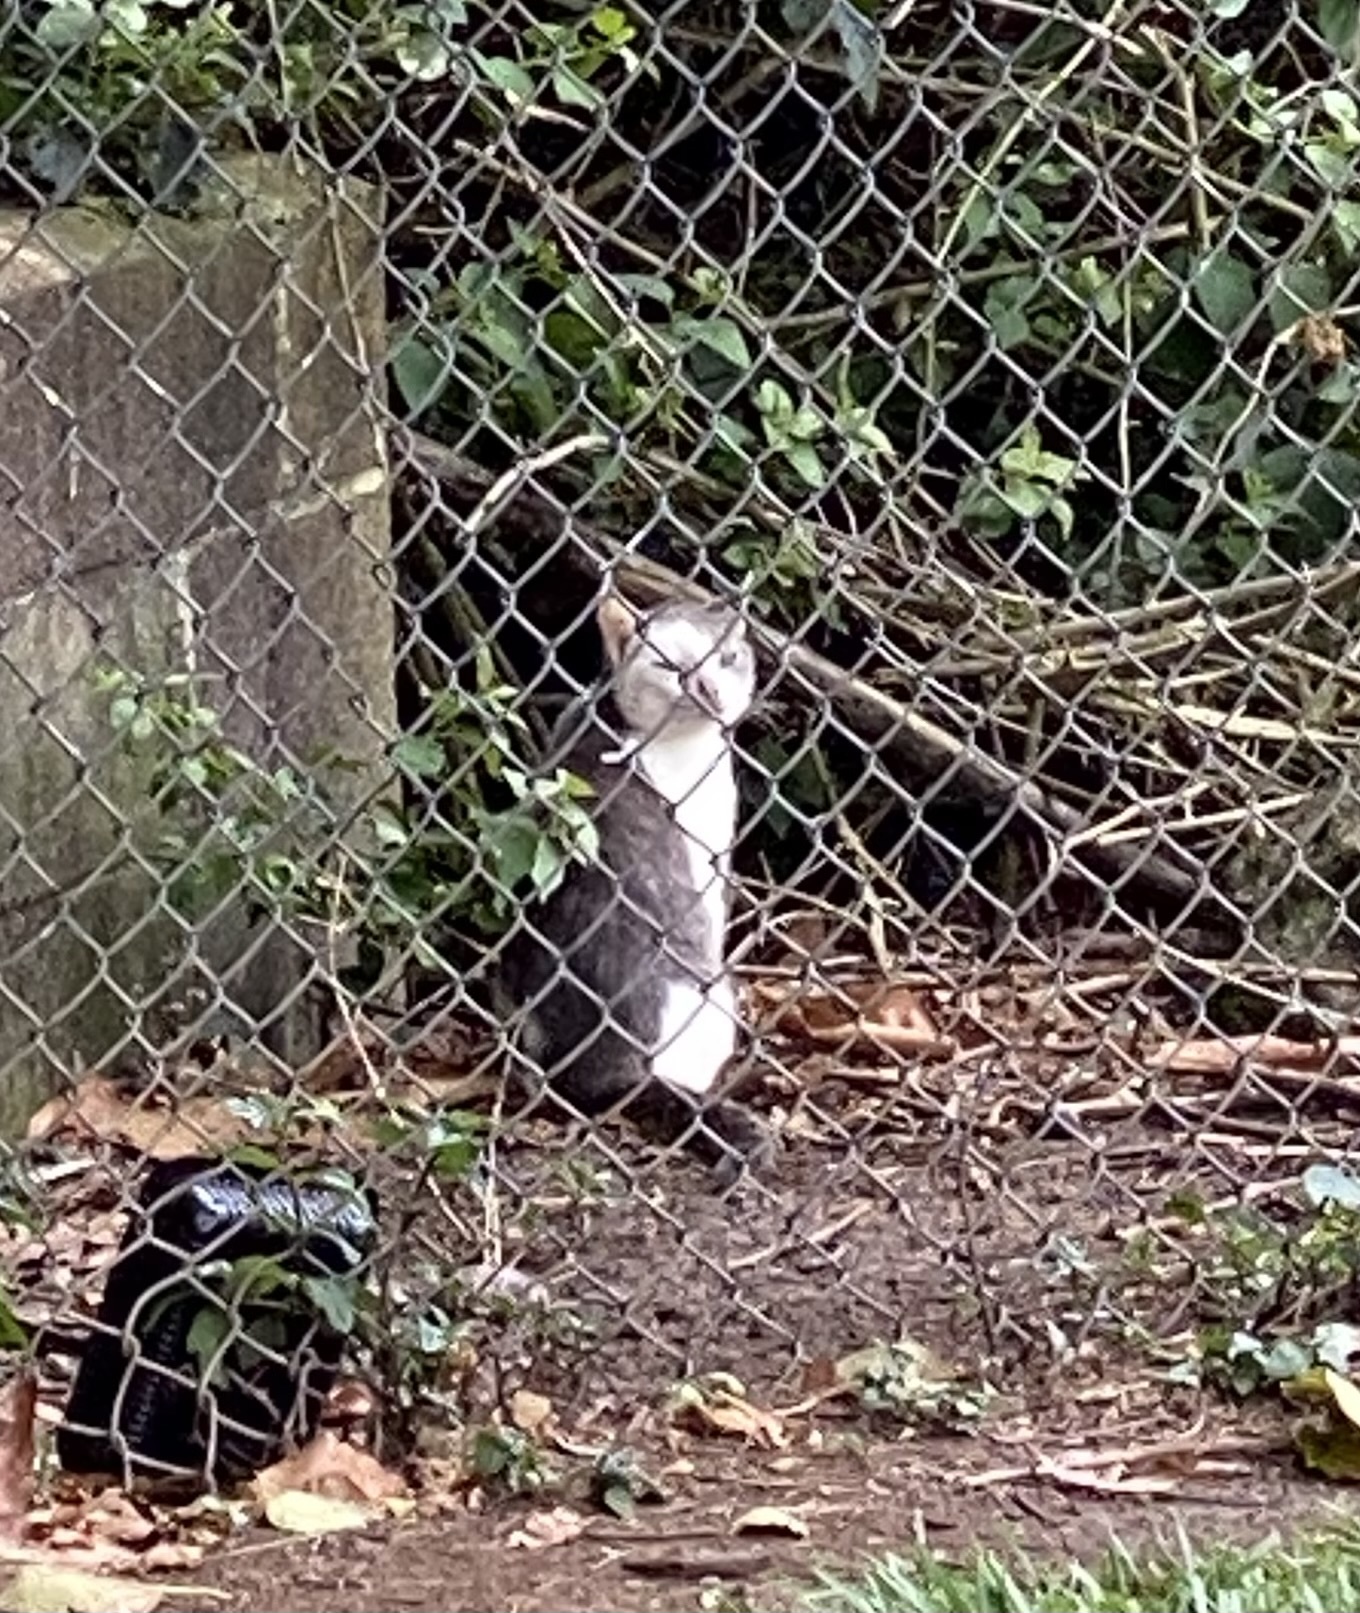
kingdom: Animalia
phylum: Chordata
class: Mammalia
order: Carnivora
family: Felidae
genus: Felis
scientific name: Felis catus
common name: Domestic cat
